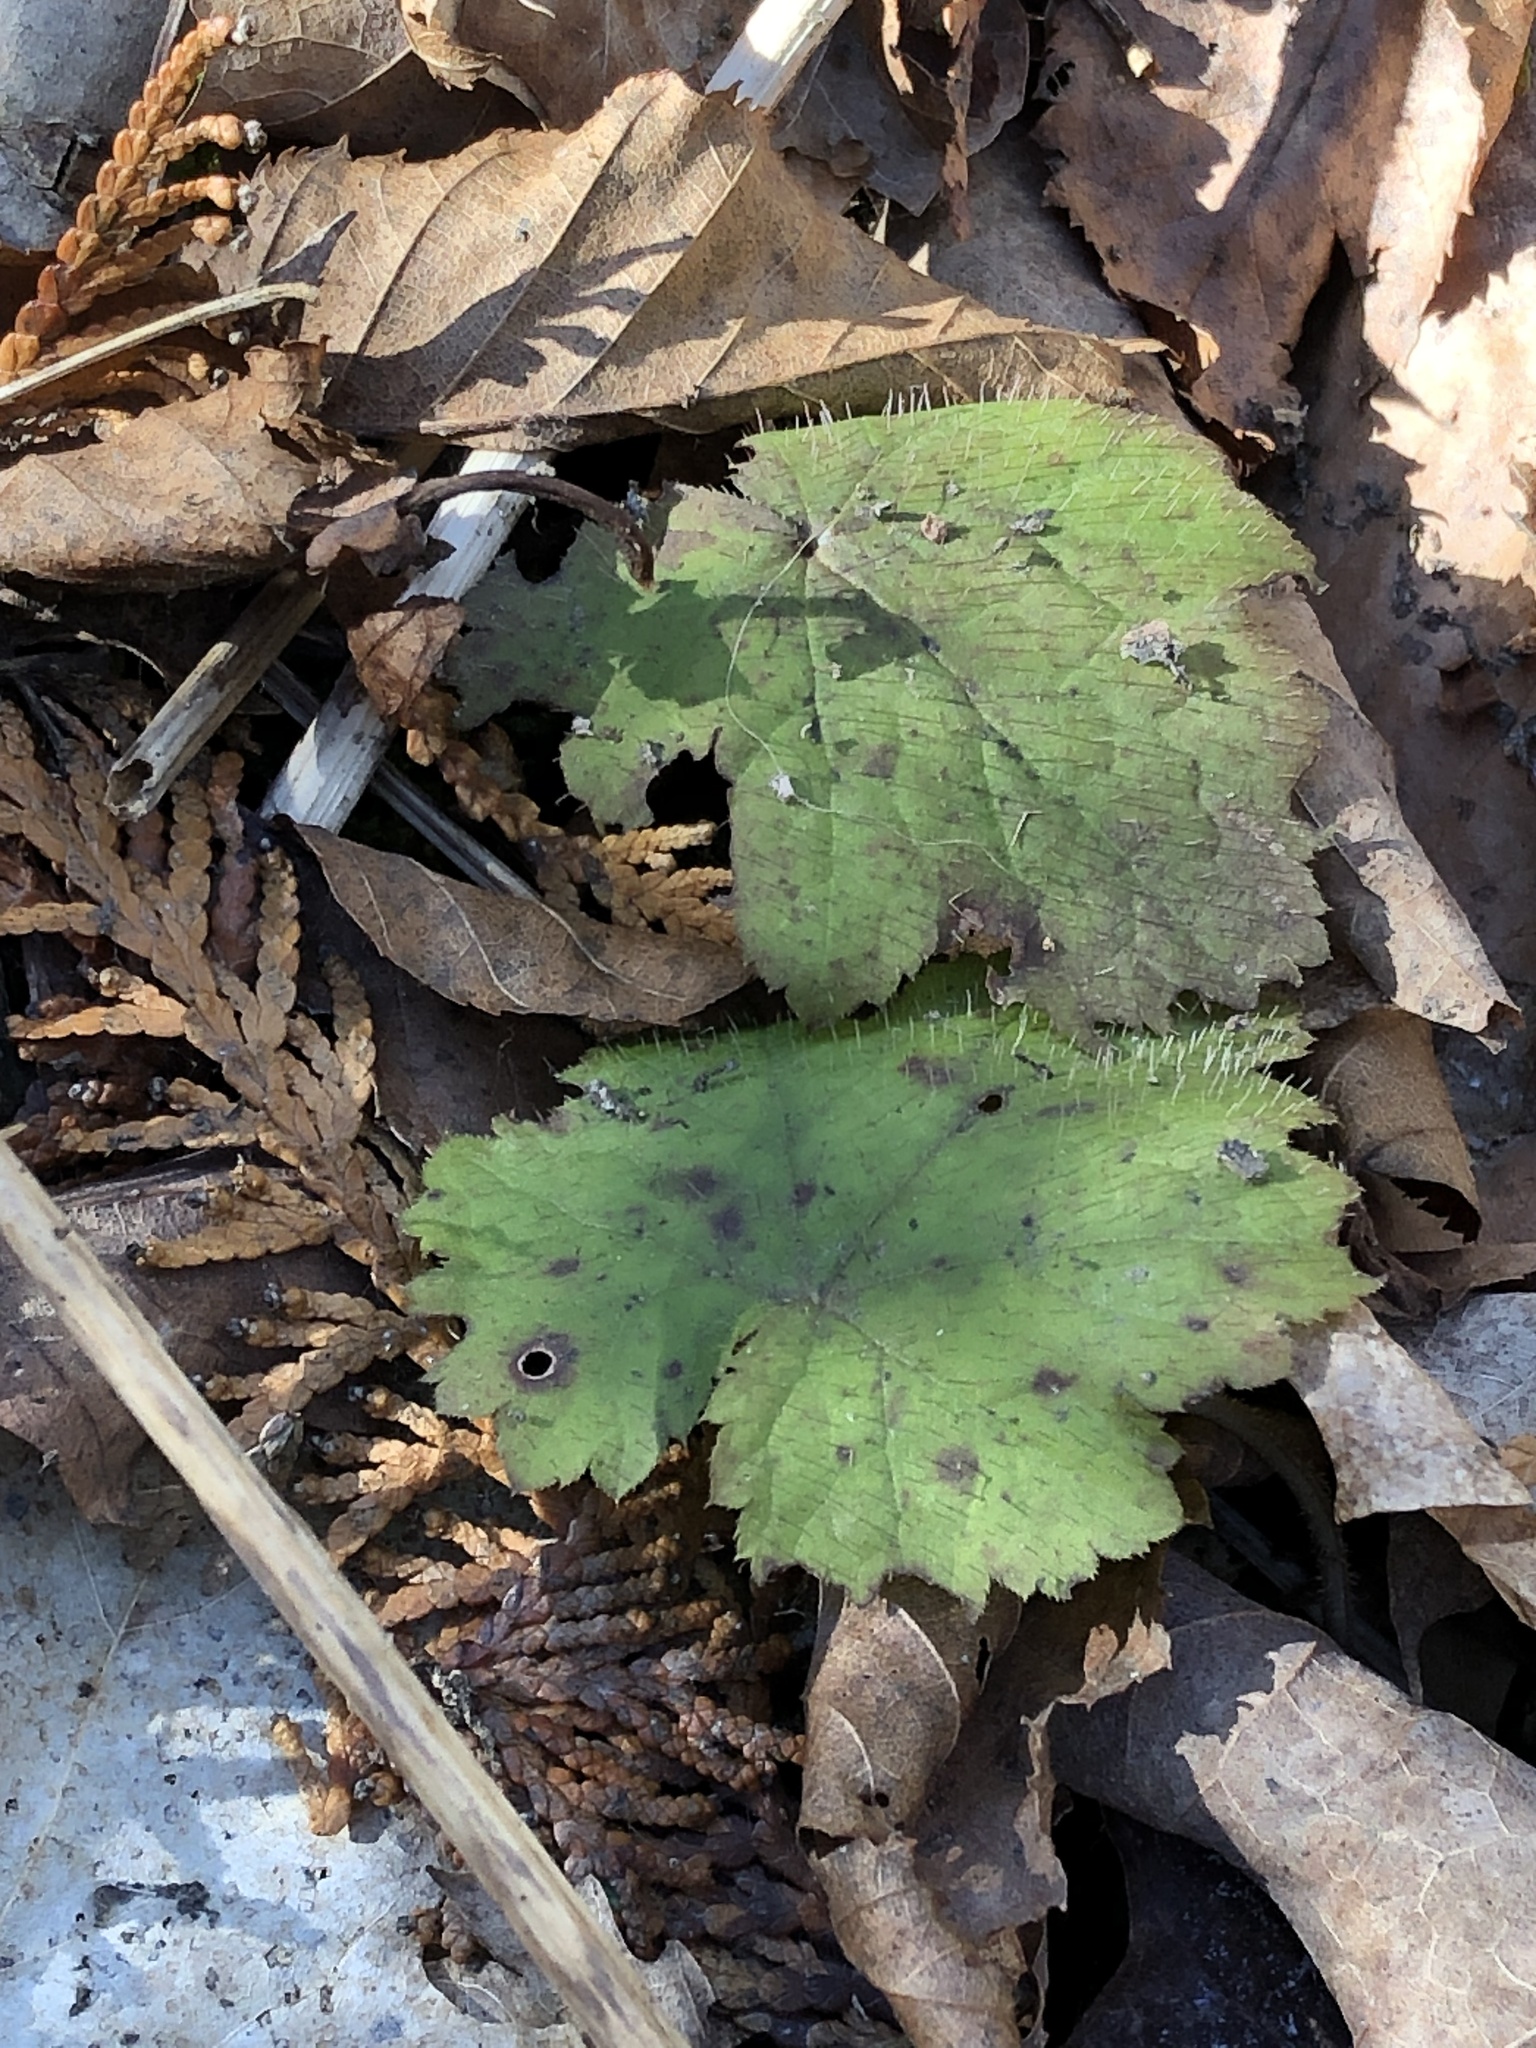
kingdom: Plantae
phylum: Tracheophyta
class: Magnoliopsida
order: Saxifragales
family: Saxifragaceae
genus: Tiarella
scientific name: Tiarella stolonifera
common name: Stoloniferous foamflower
